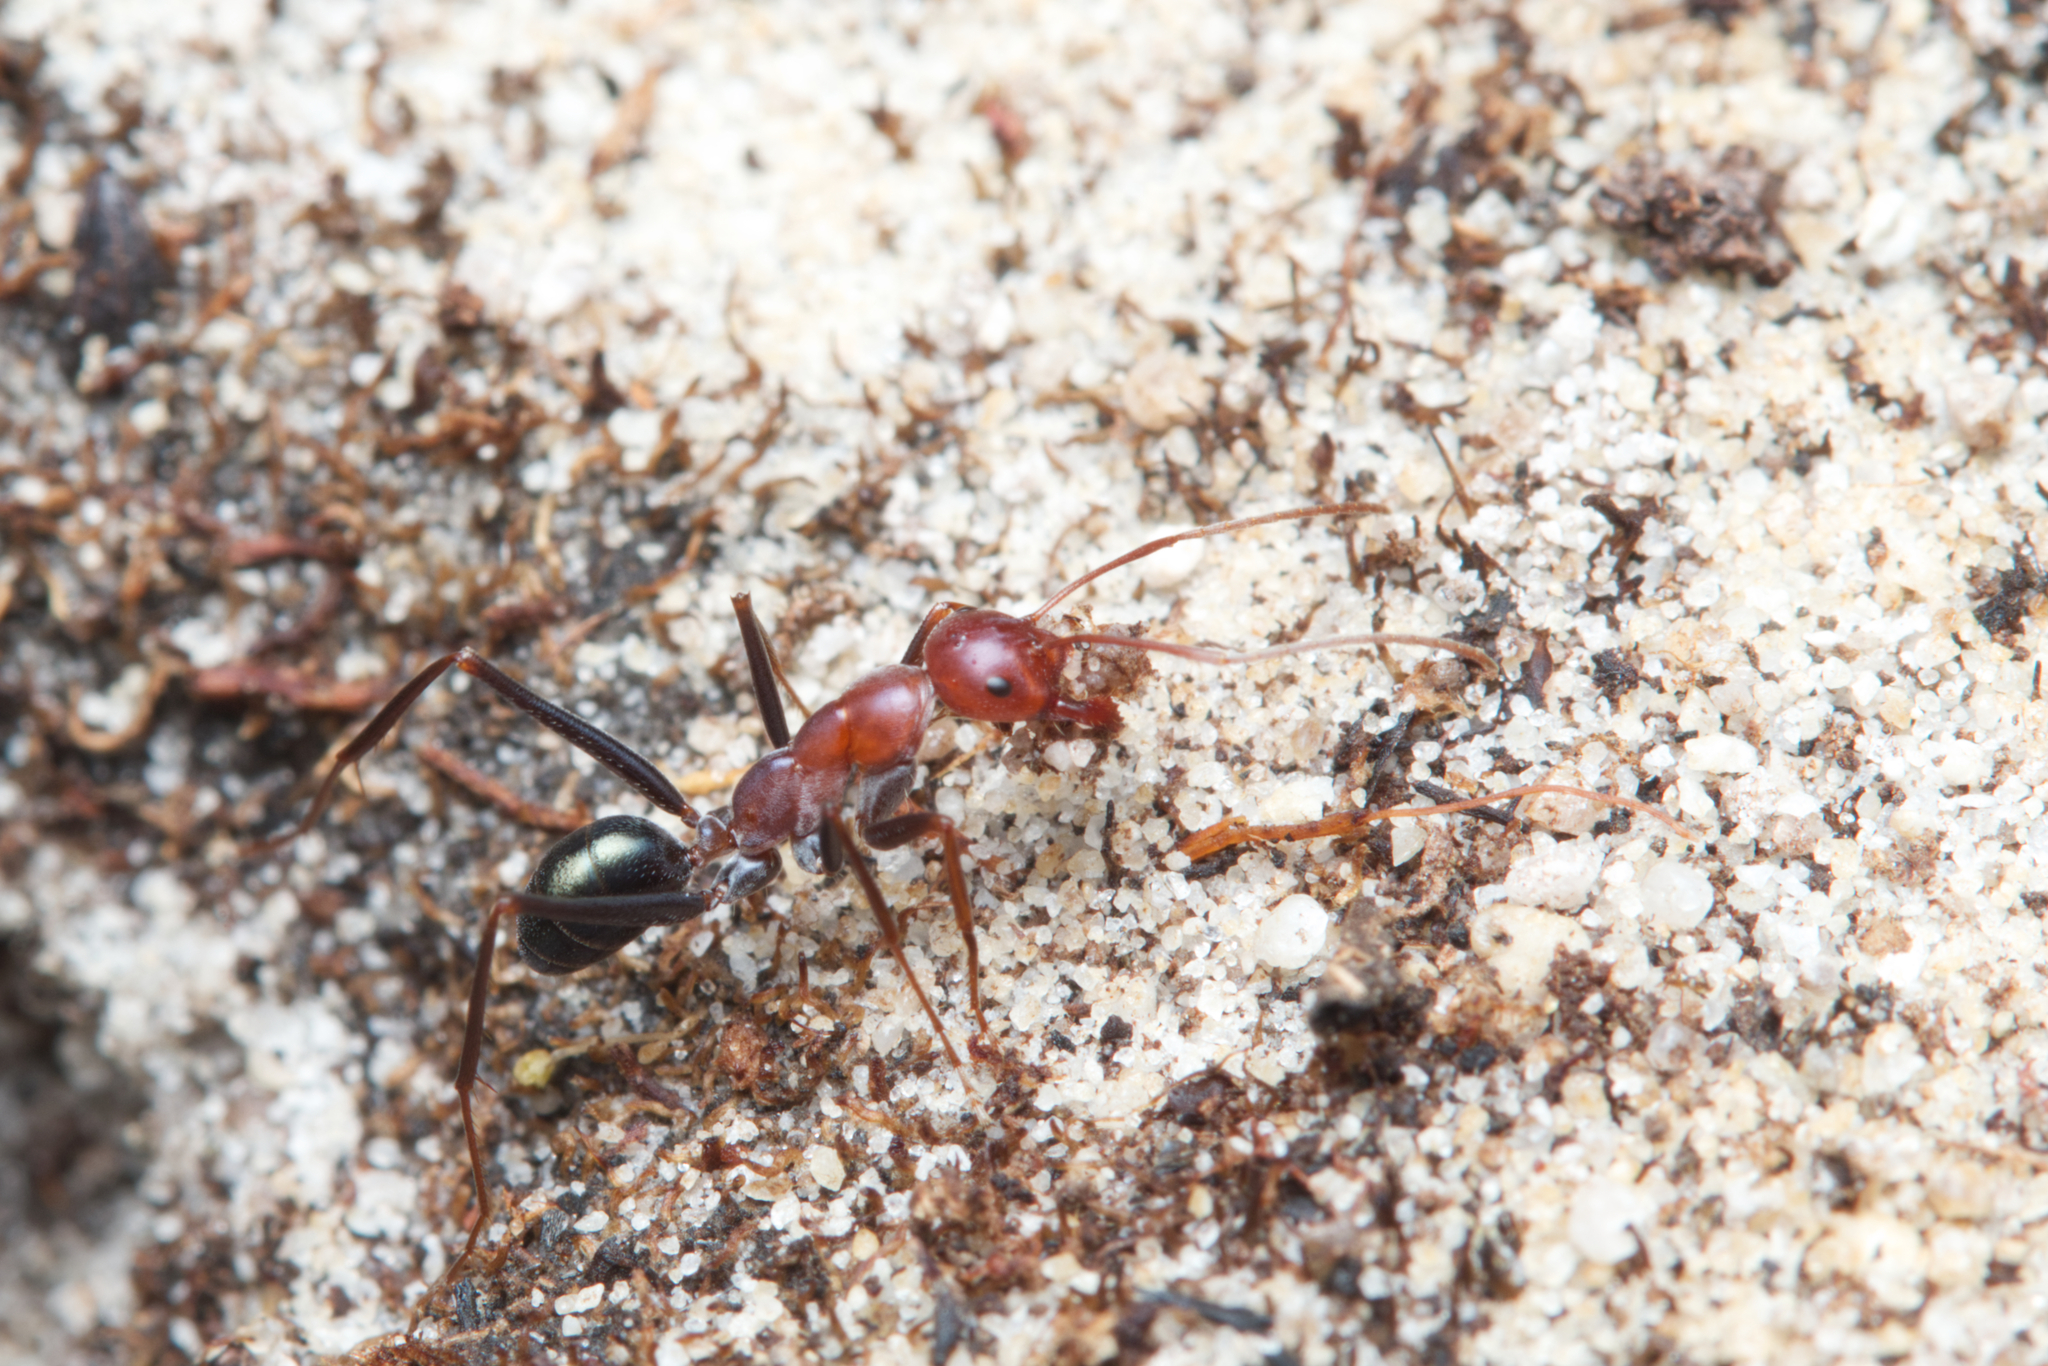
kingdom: Animalia
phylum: Arthropoda
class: Insecta
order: Hymenoptera
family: Formicidae
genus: Melophorus
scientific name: Melophorus rufoniger
